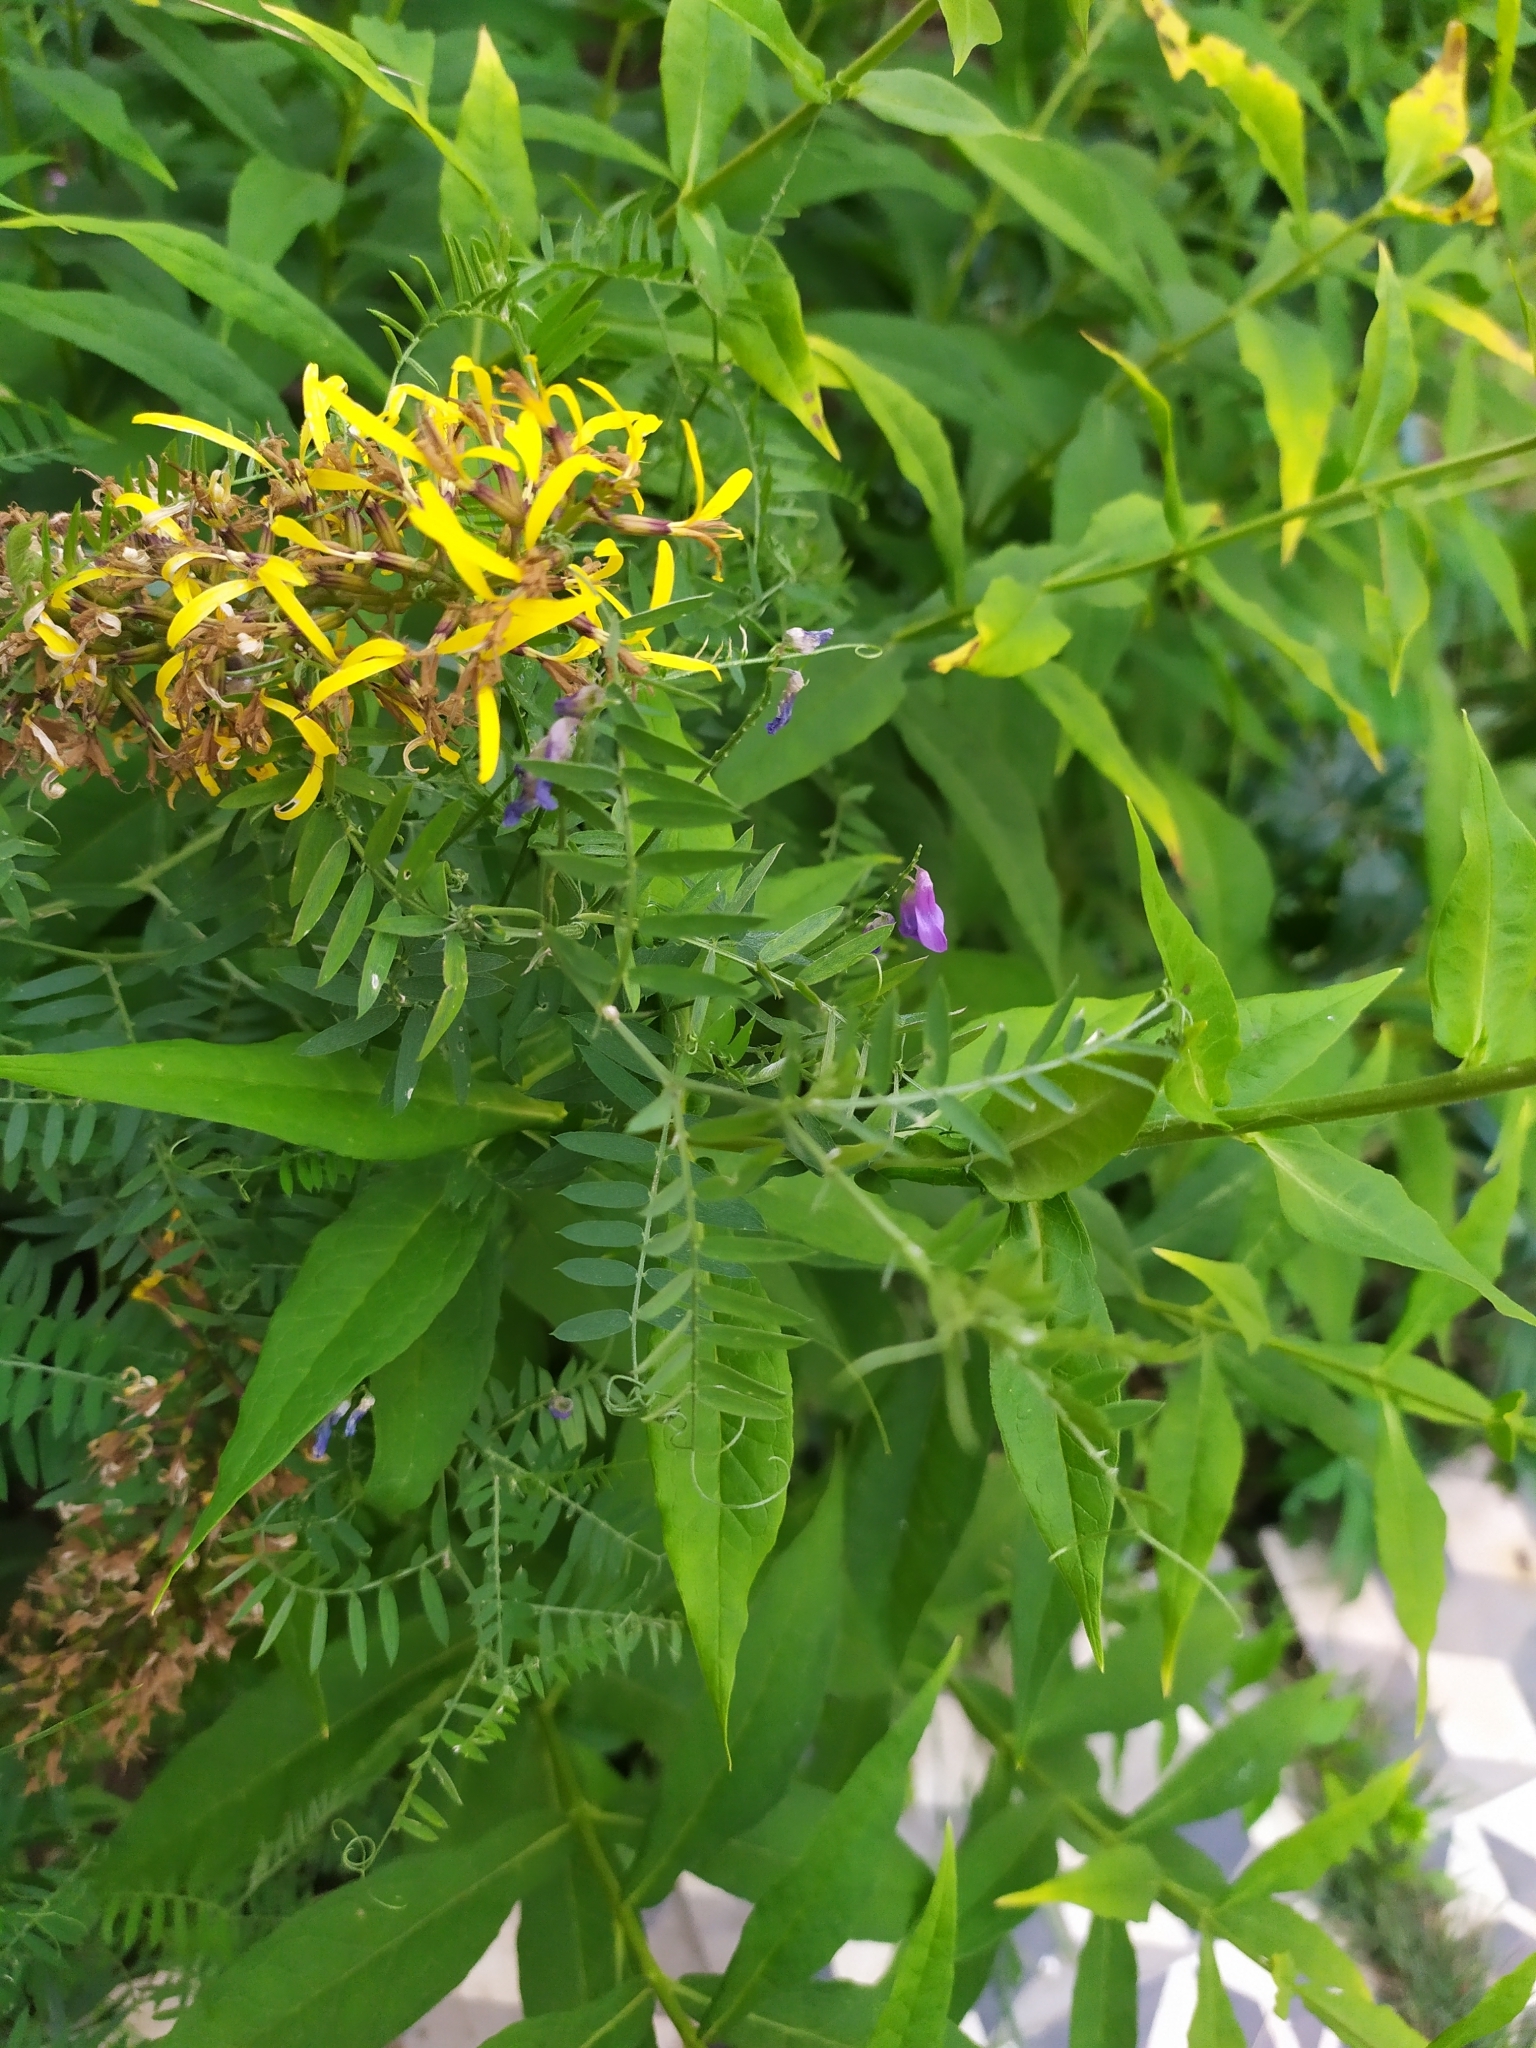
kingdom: Plantae
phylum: Tracheophyta
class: Magnoliopsida
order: Fabales
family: Fabaceae
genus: Vicia
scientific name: Vicia cracca
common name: Bird vetch
